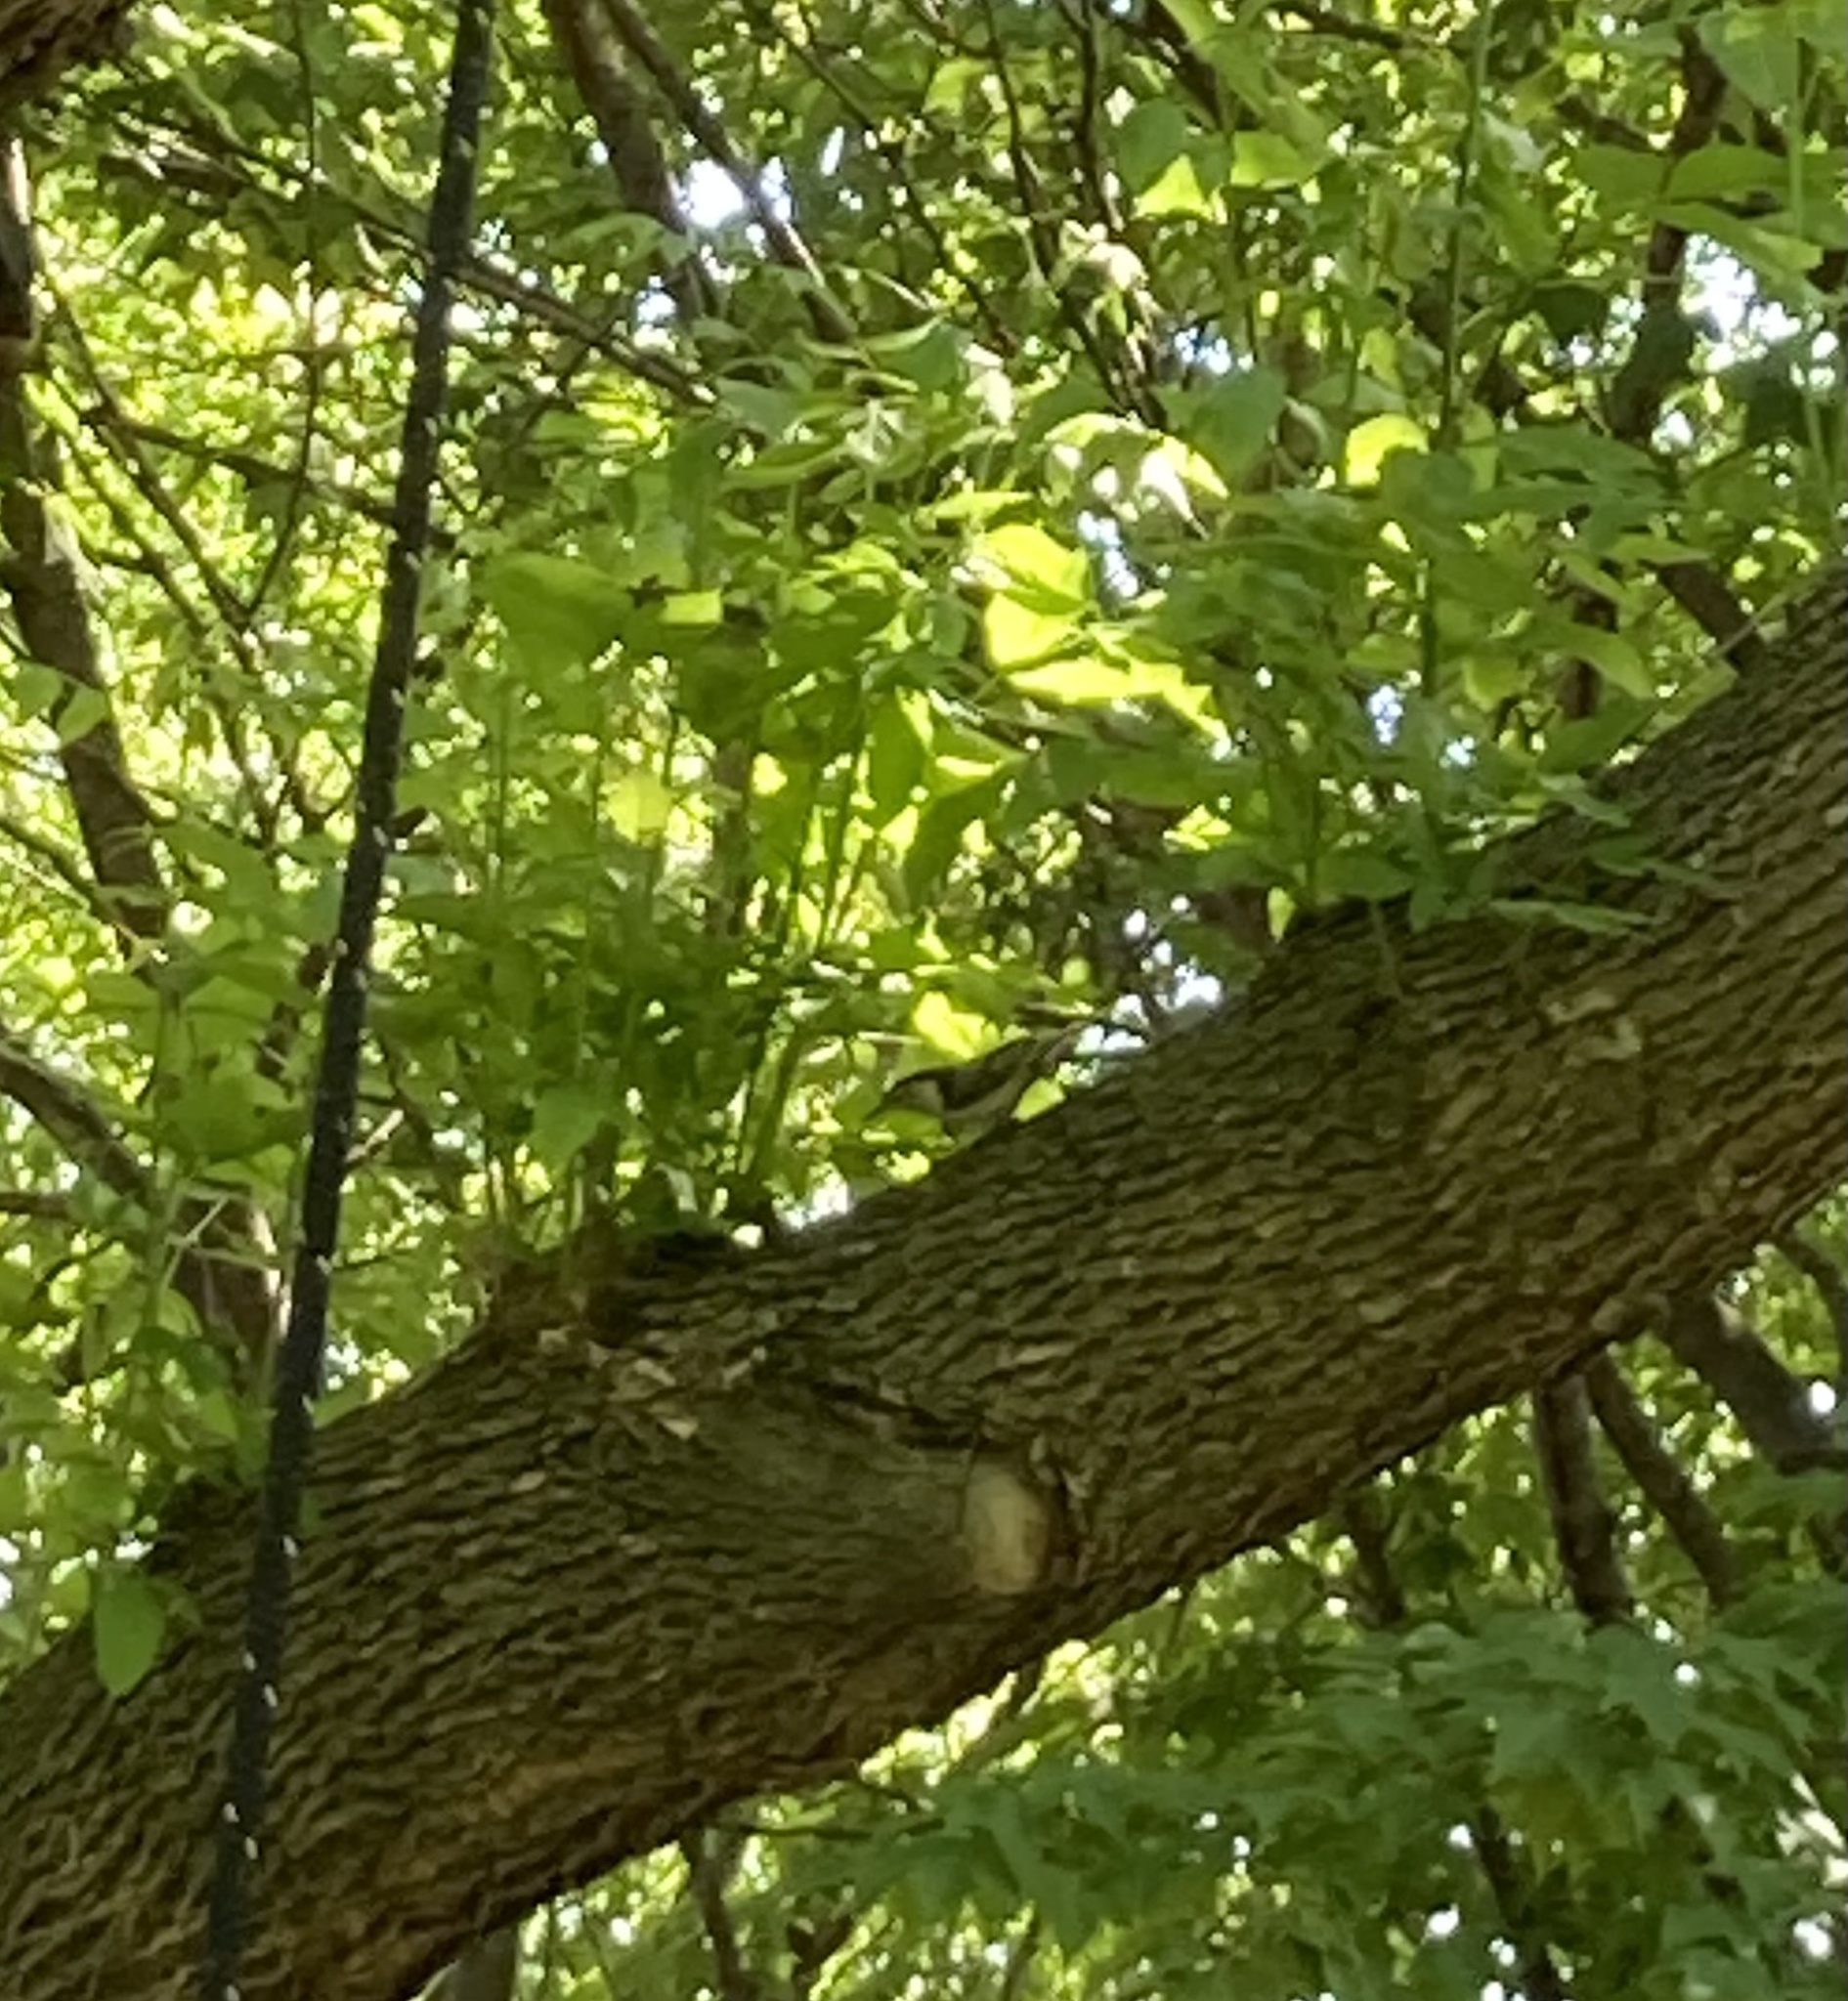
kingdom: Animalia
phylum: Chordata
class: Aves
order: Passeriformes
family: Sittidae
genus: Sitta
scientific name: Sitta carolinensis
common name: White-breasted nuthatch
